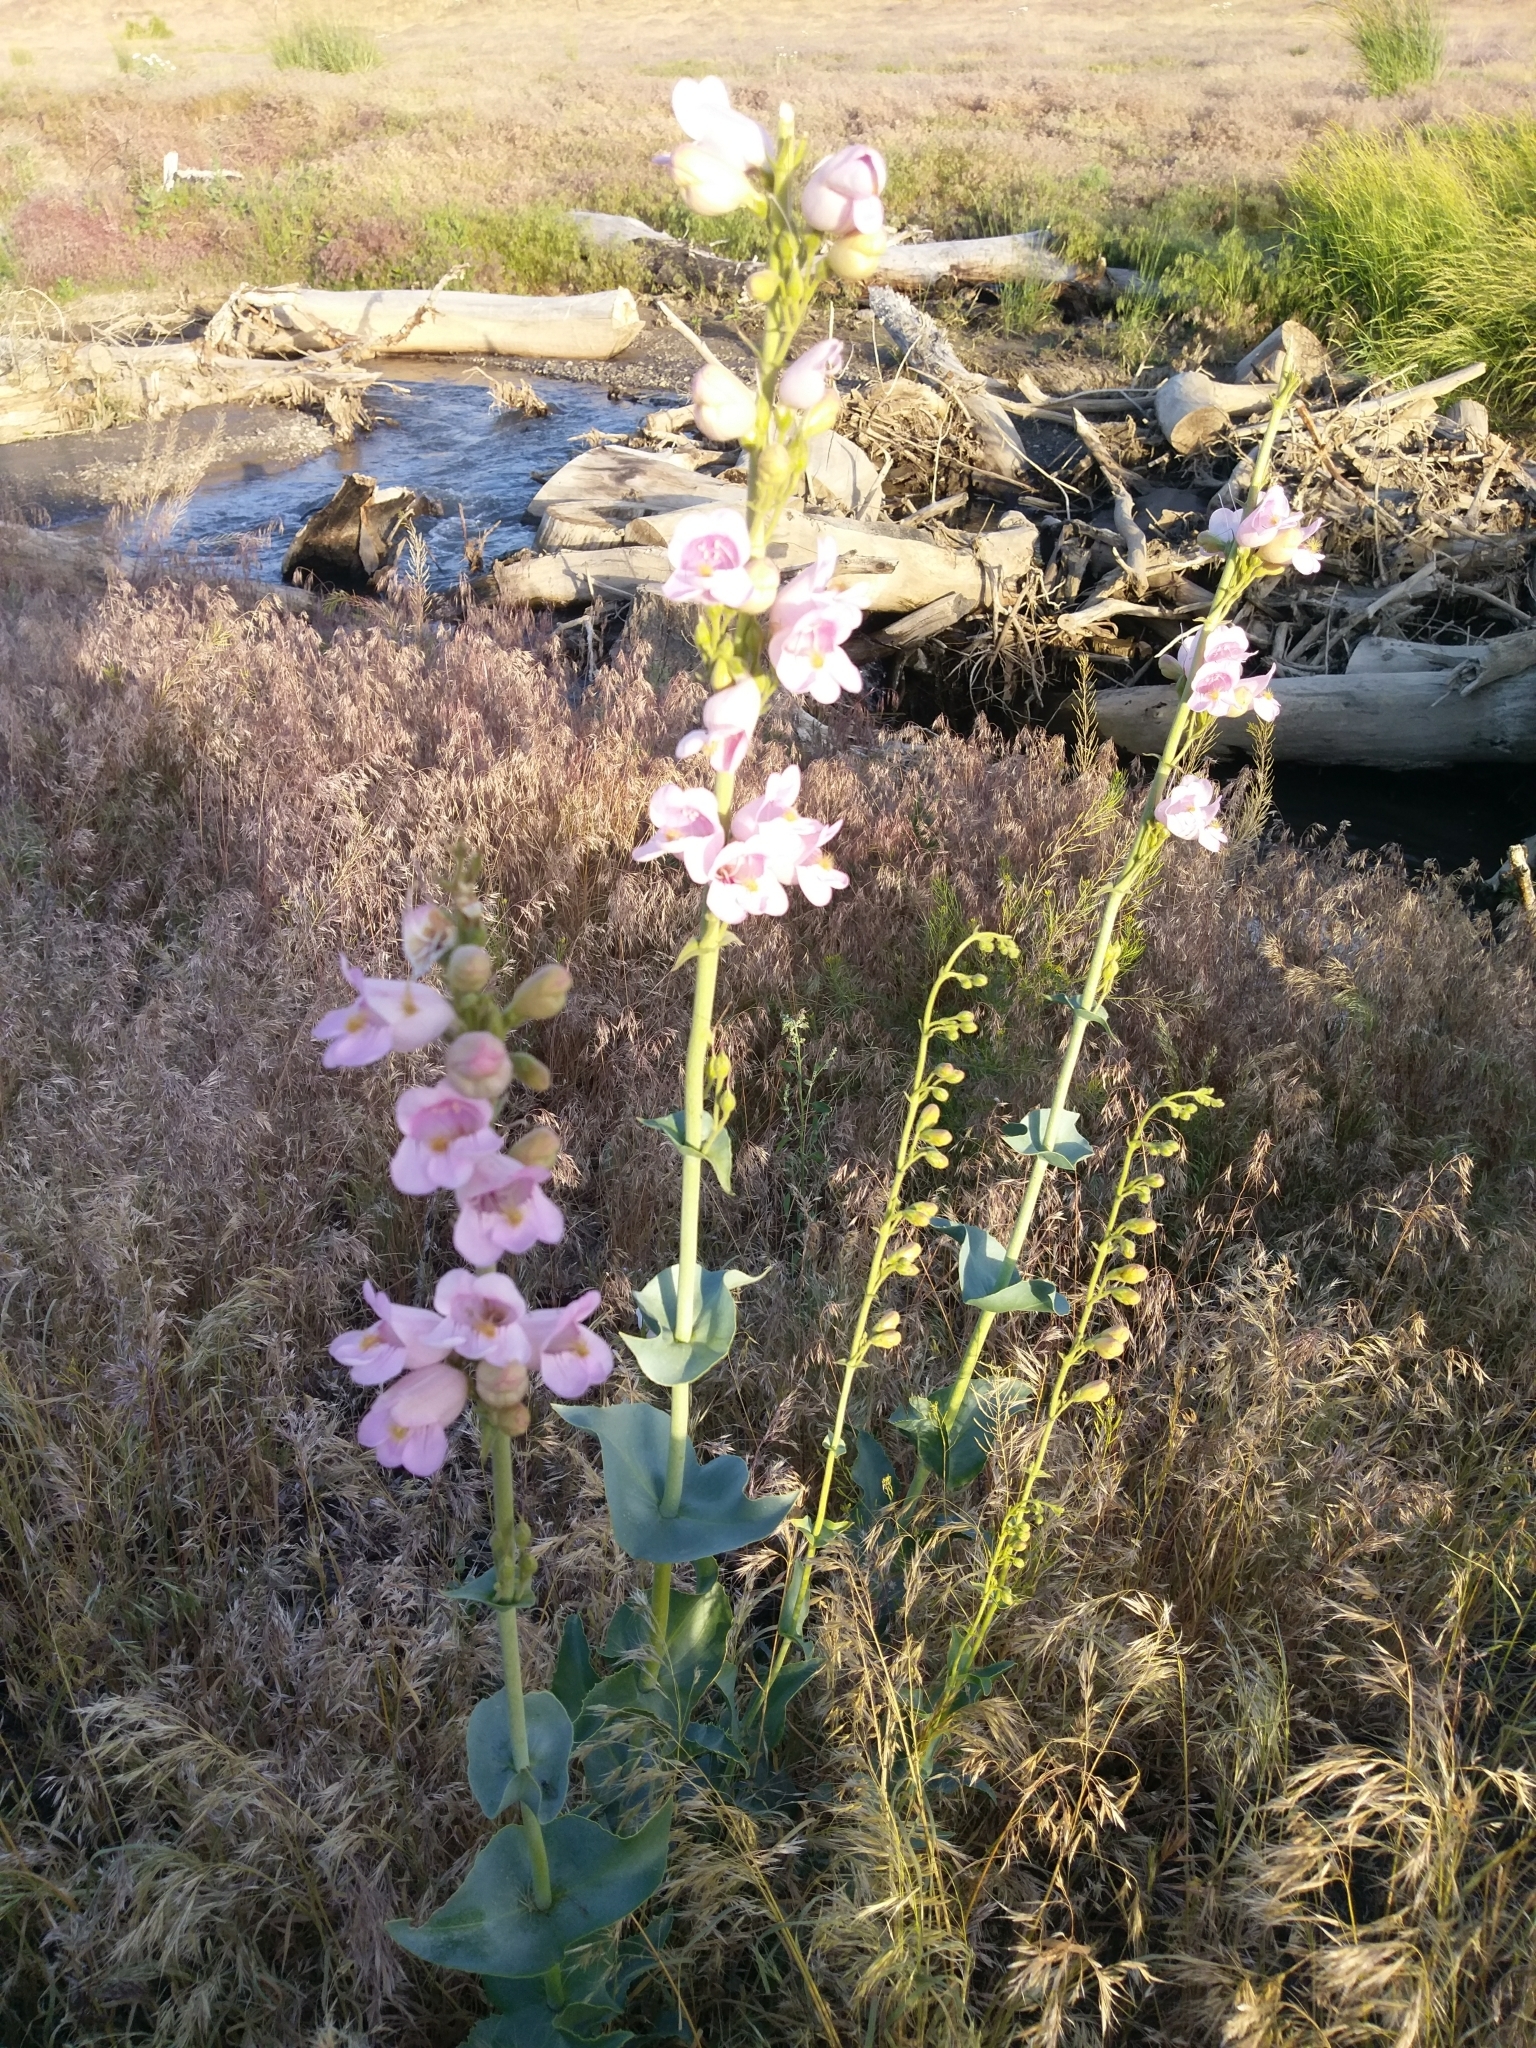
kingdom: Plantae
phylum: Tracheophyta
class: Magnoliopsida
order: Lamiales
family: Plantaginaceae
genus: Penstemon
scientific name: Penstemon palmeri
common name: Palmer penstemon
